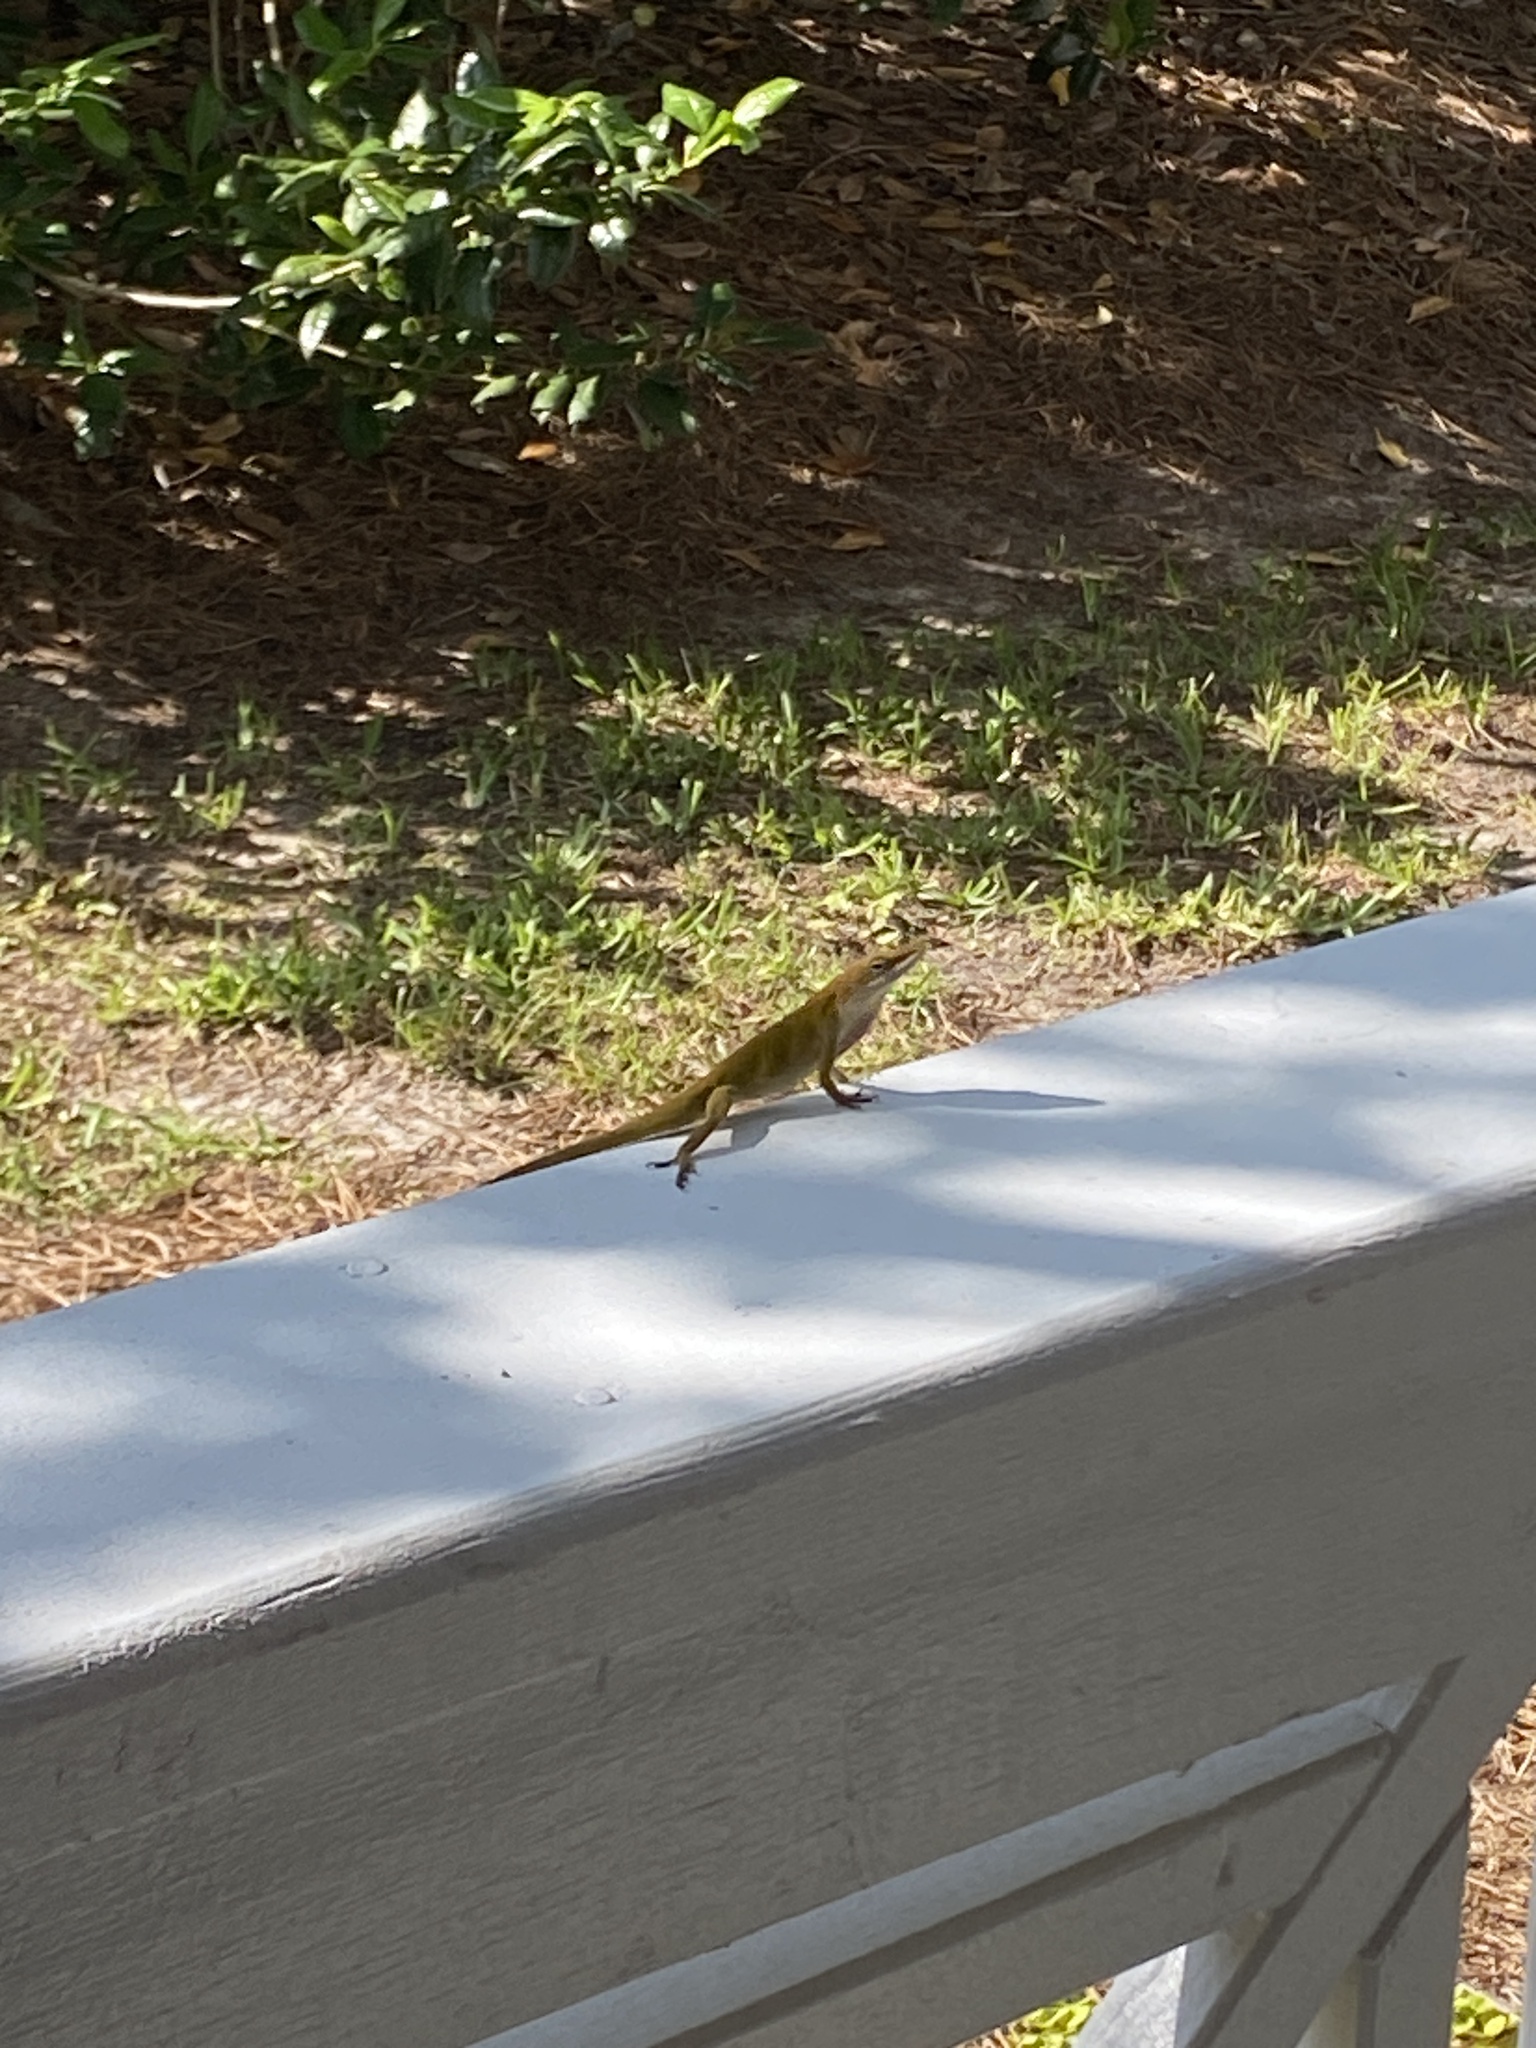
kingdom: Animalia
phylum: Chordata
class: Squamata
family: Dactyloidae
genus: Anolis
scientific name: Anolis carolinensis
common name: Green anole
